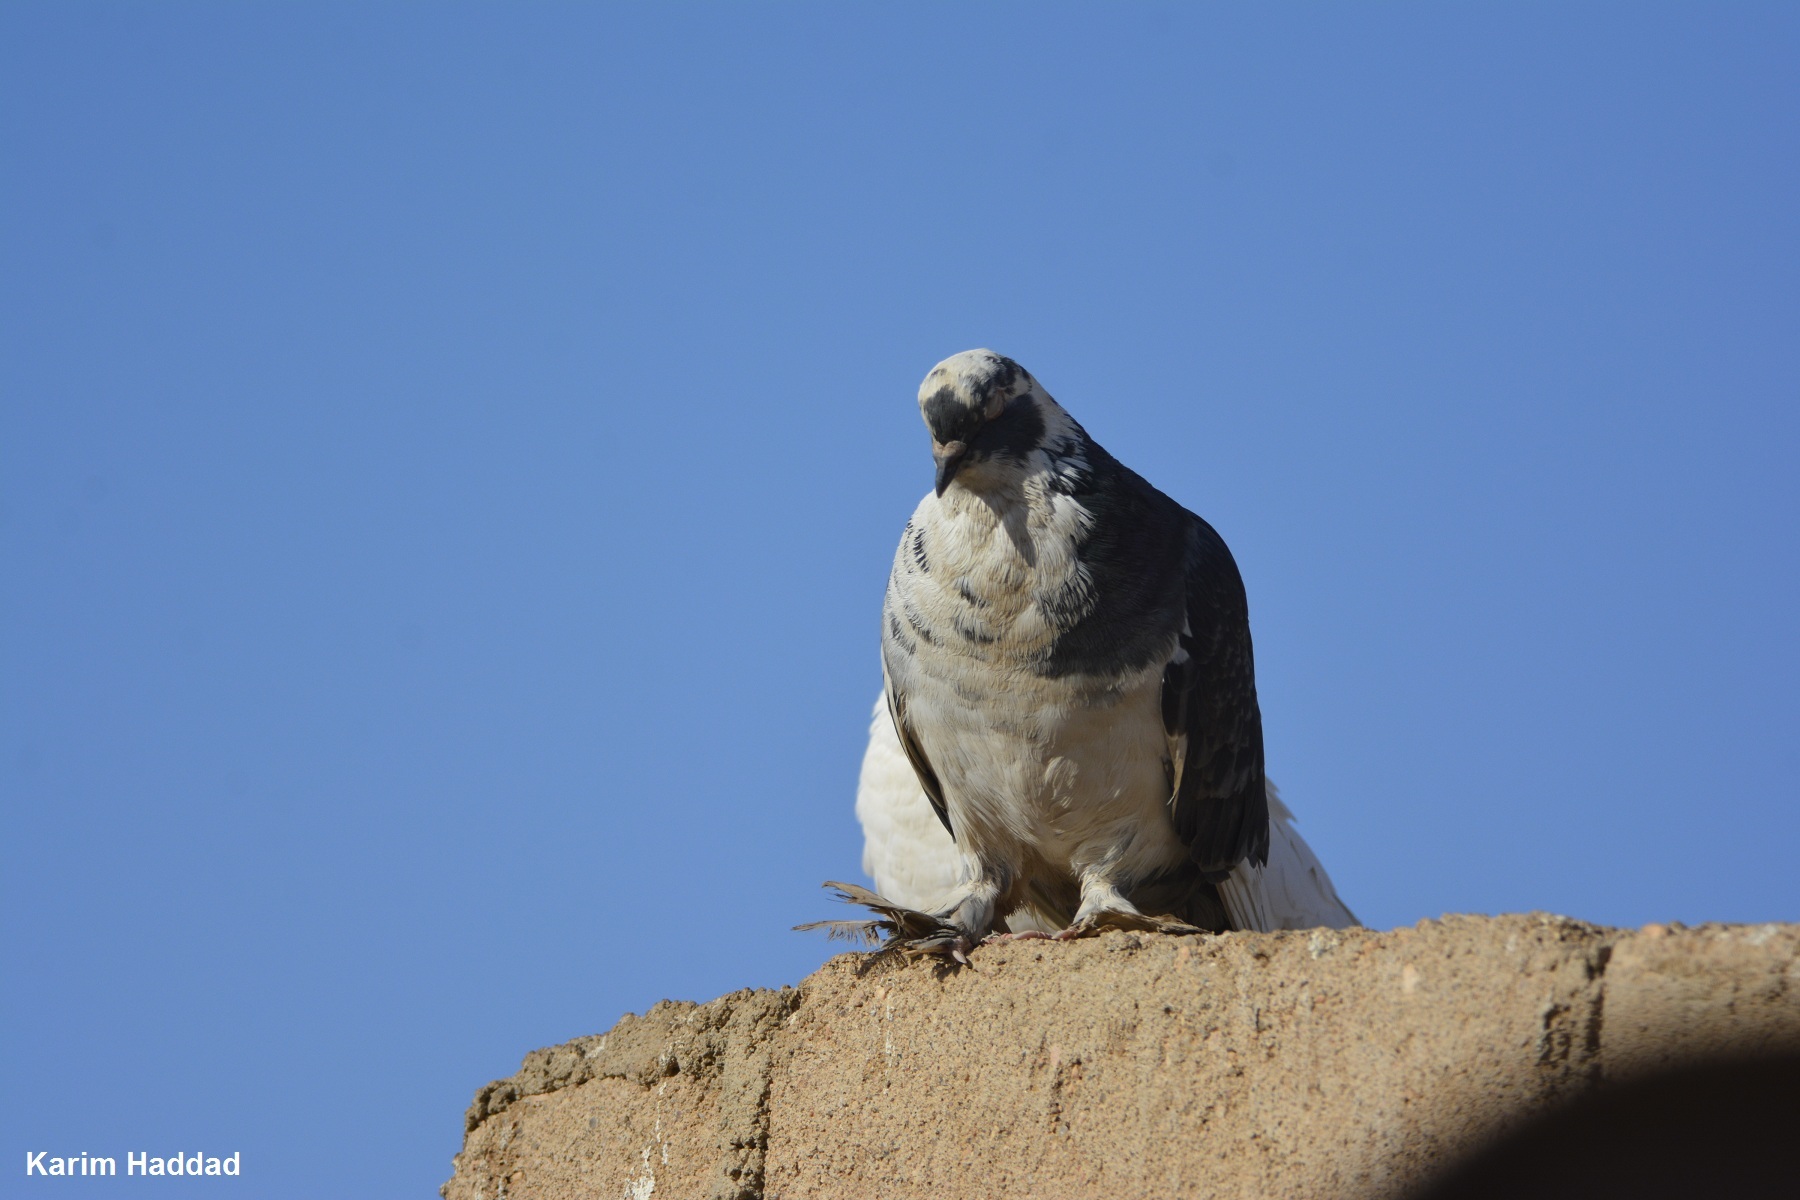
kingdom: Animalia
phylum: Chordata
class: Aves
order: Columbiformes
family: Columbidae
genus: Columba
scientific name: Columba livia
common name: Rock pigeon
